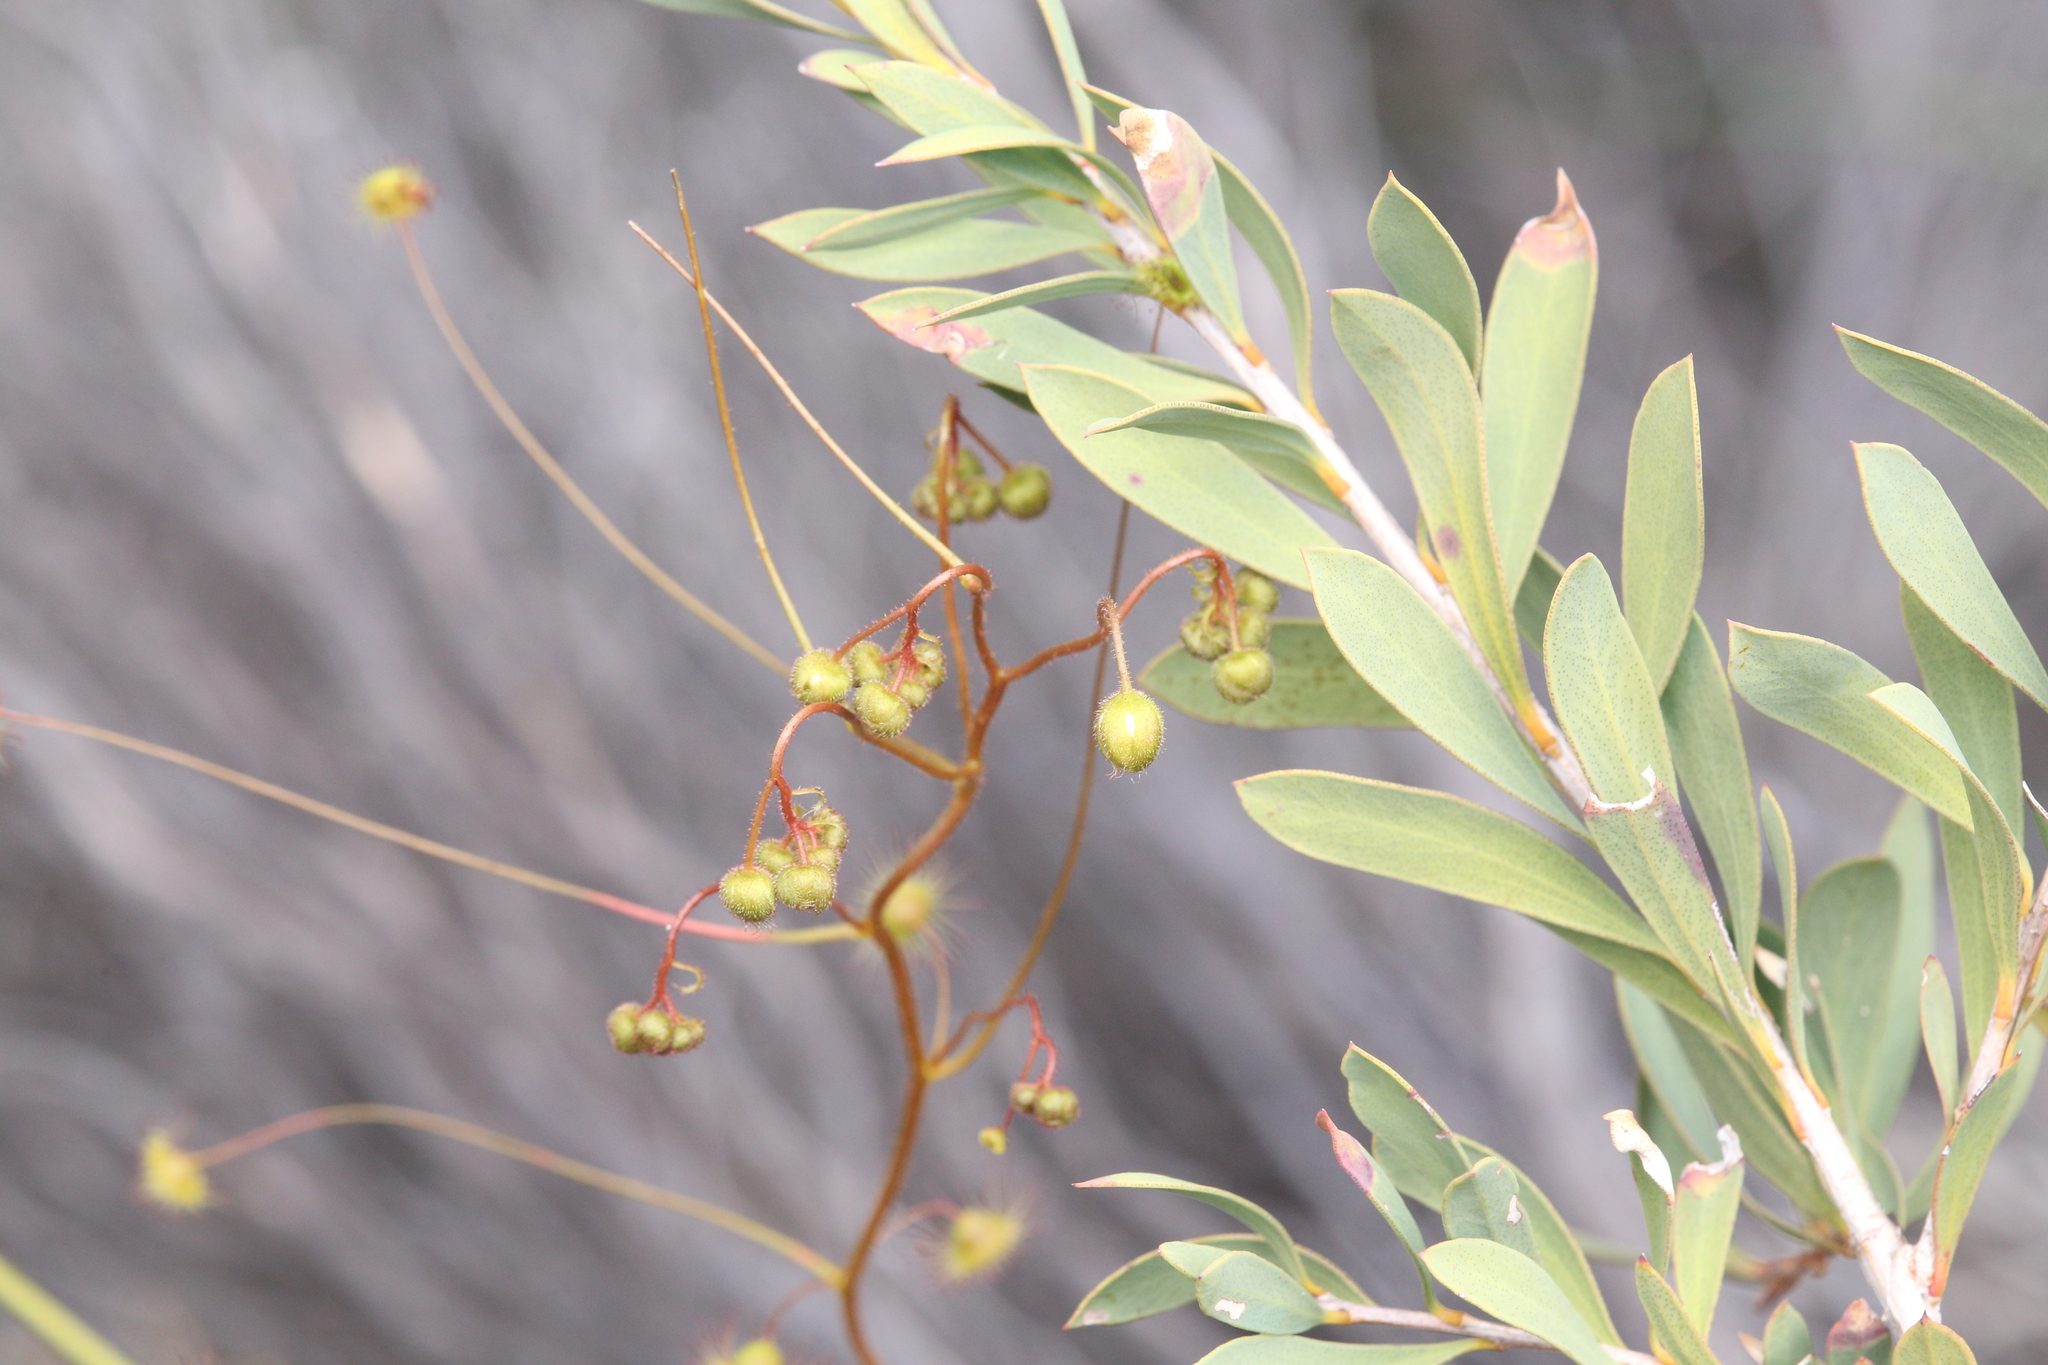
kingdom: Plantae
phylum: Tracheophyta
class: Magnoliopsida
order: Caryophyllales
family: Droseraceae
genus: Drosera
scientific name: Drosera macrantha
